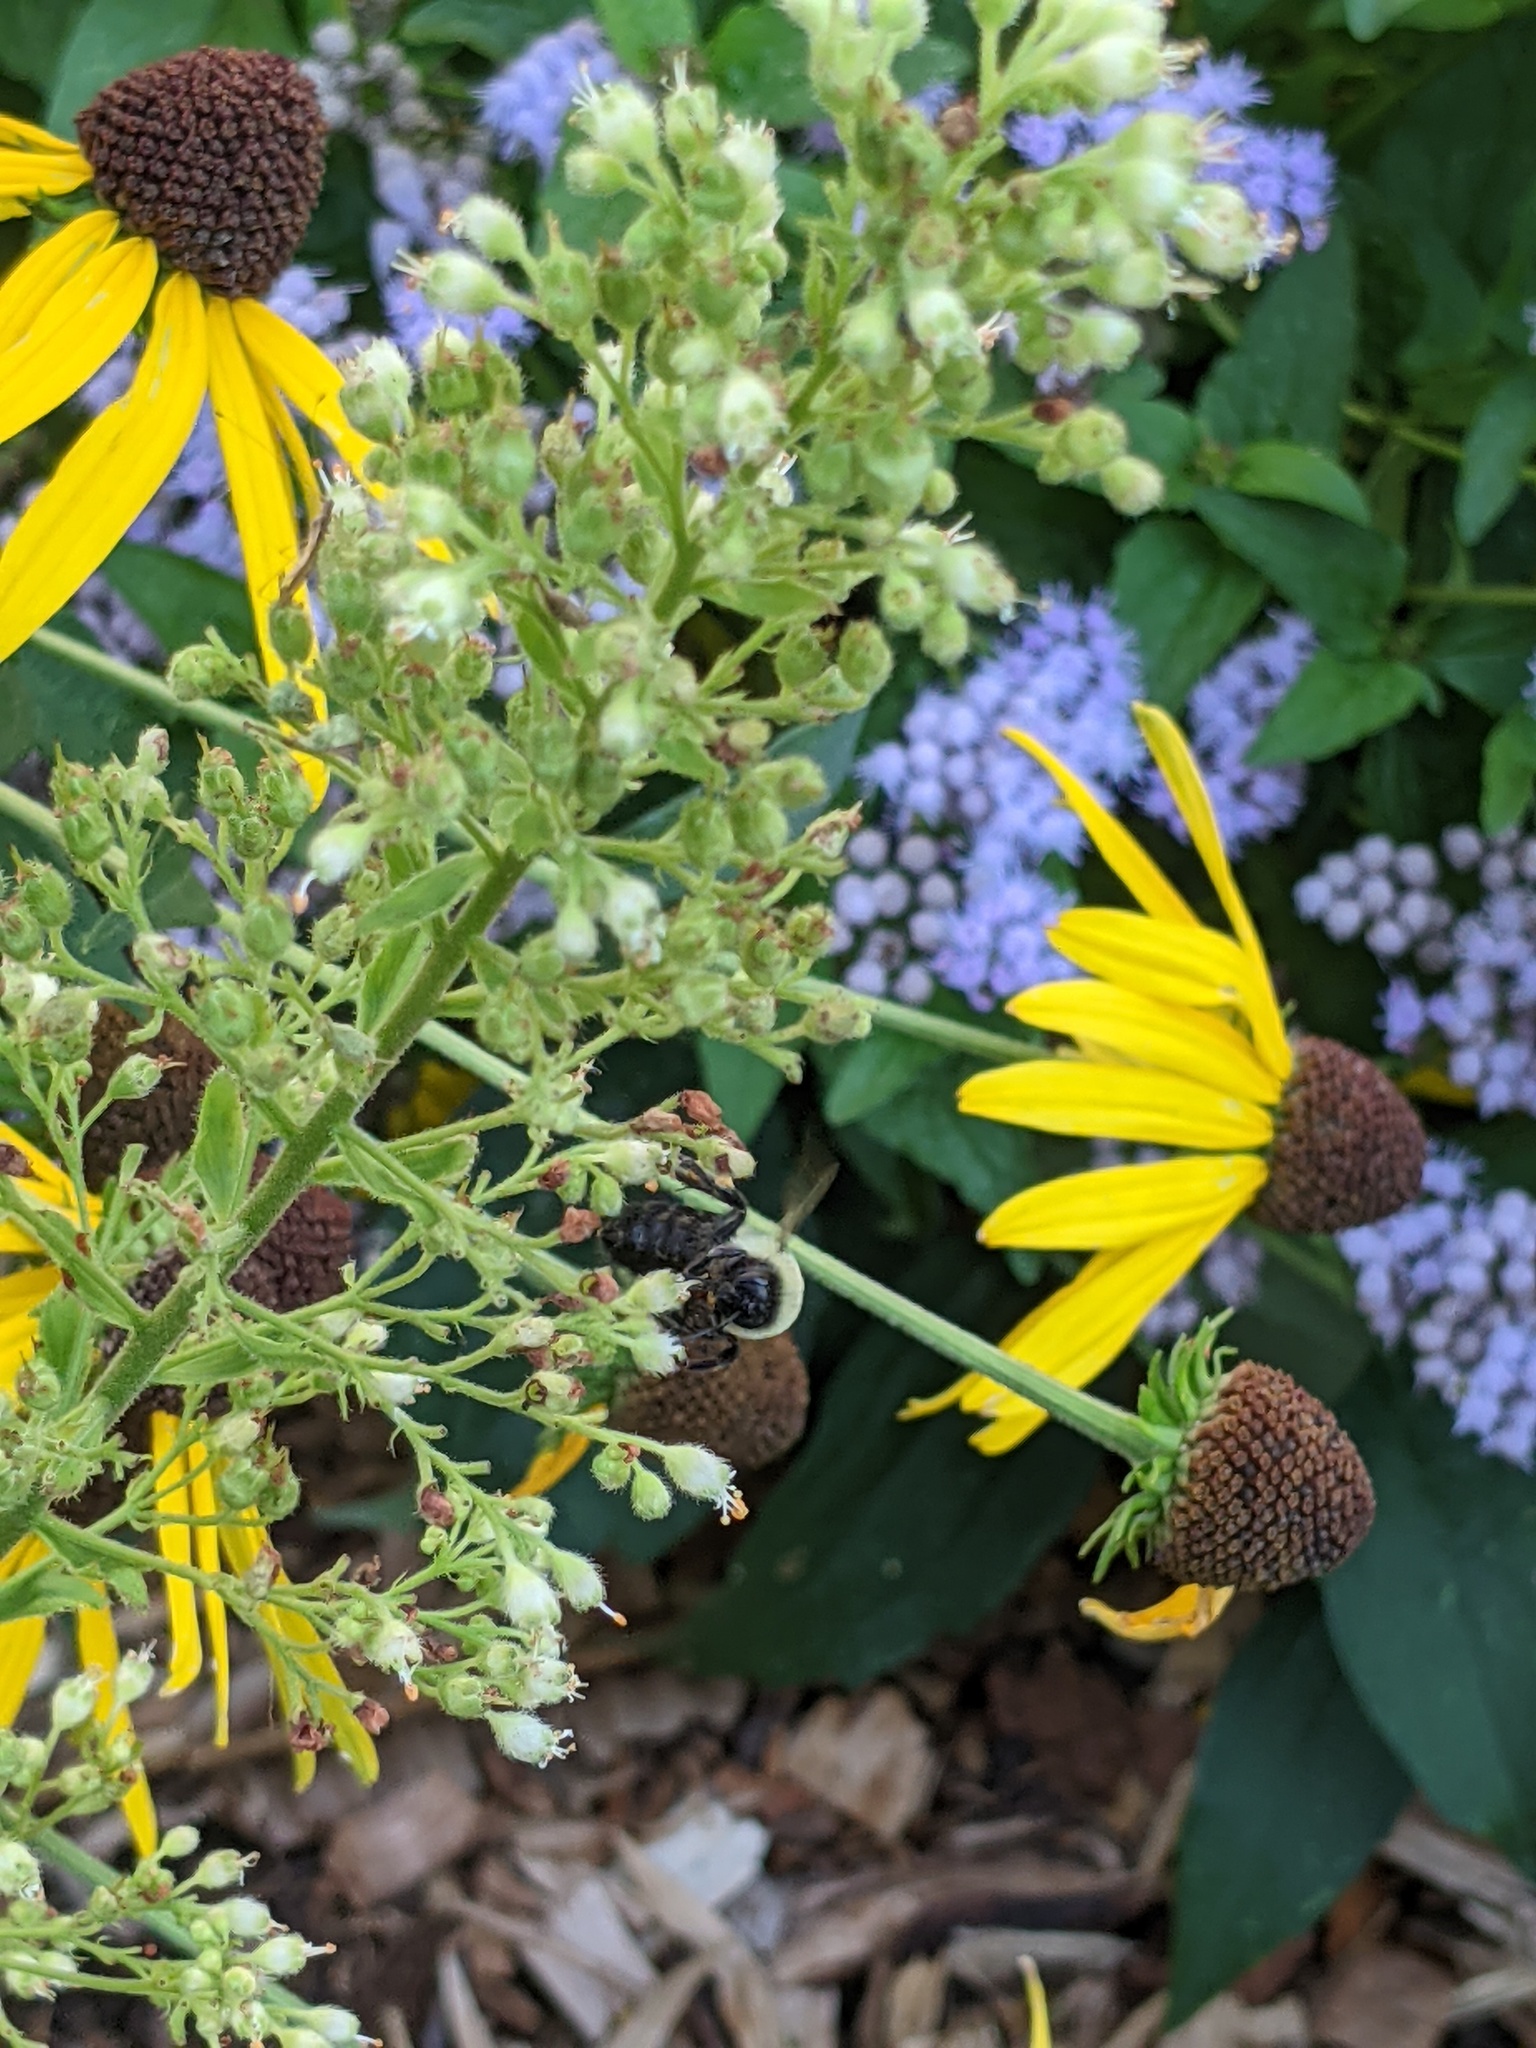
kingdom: Animalia
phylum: Arthropoda
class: Insecta
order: Hymenoptera
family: Apidae
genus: Bombus
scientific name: Bombus impatiens
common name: Common eastern bumble bee
